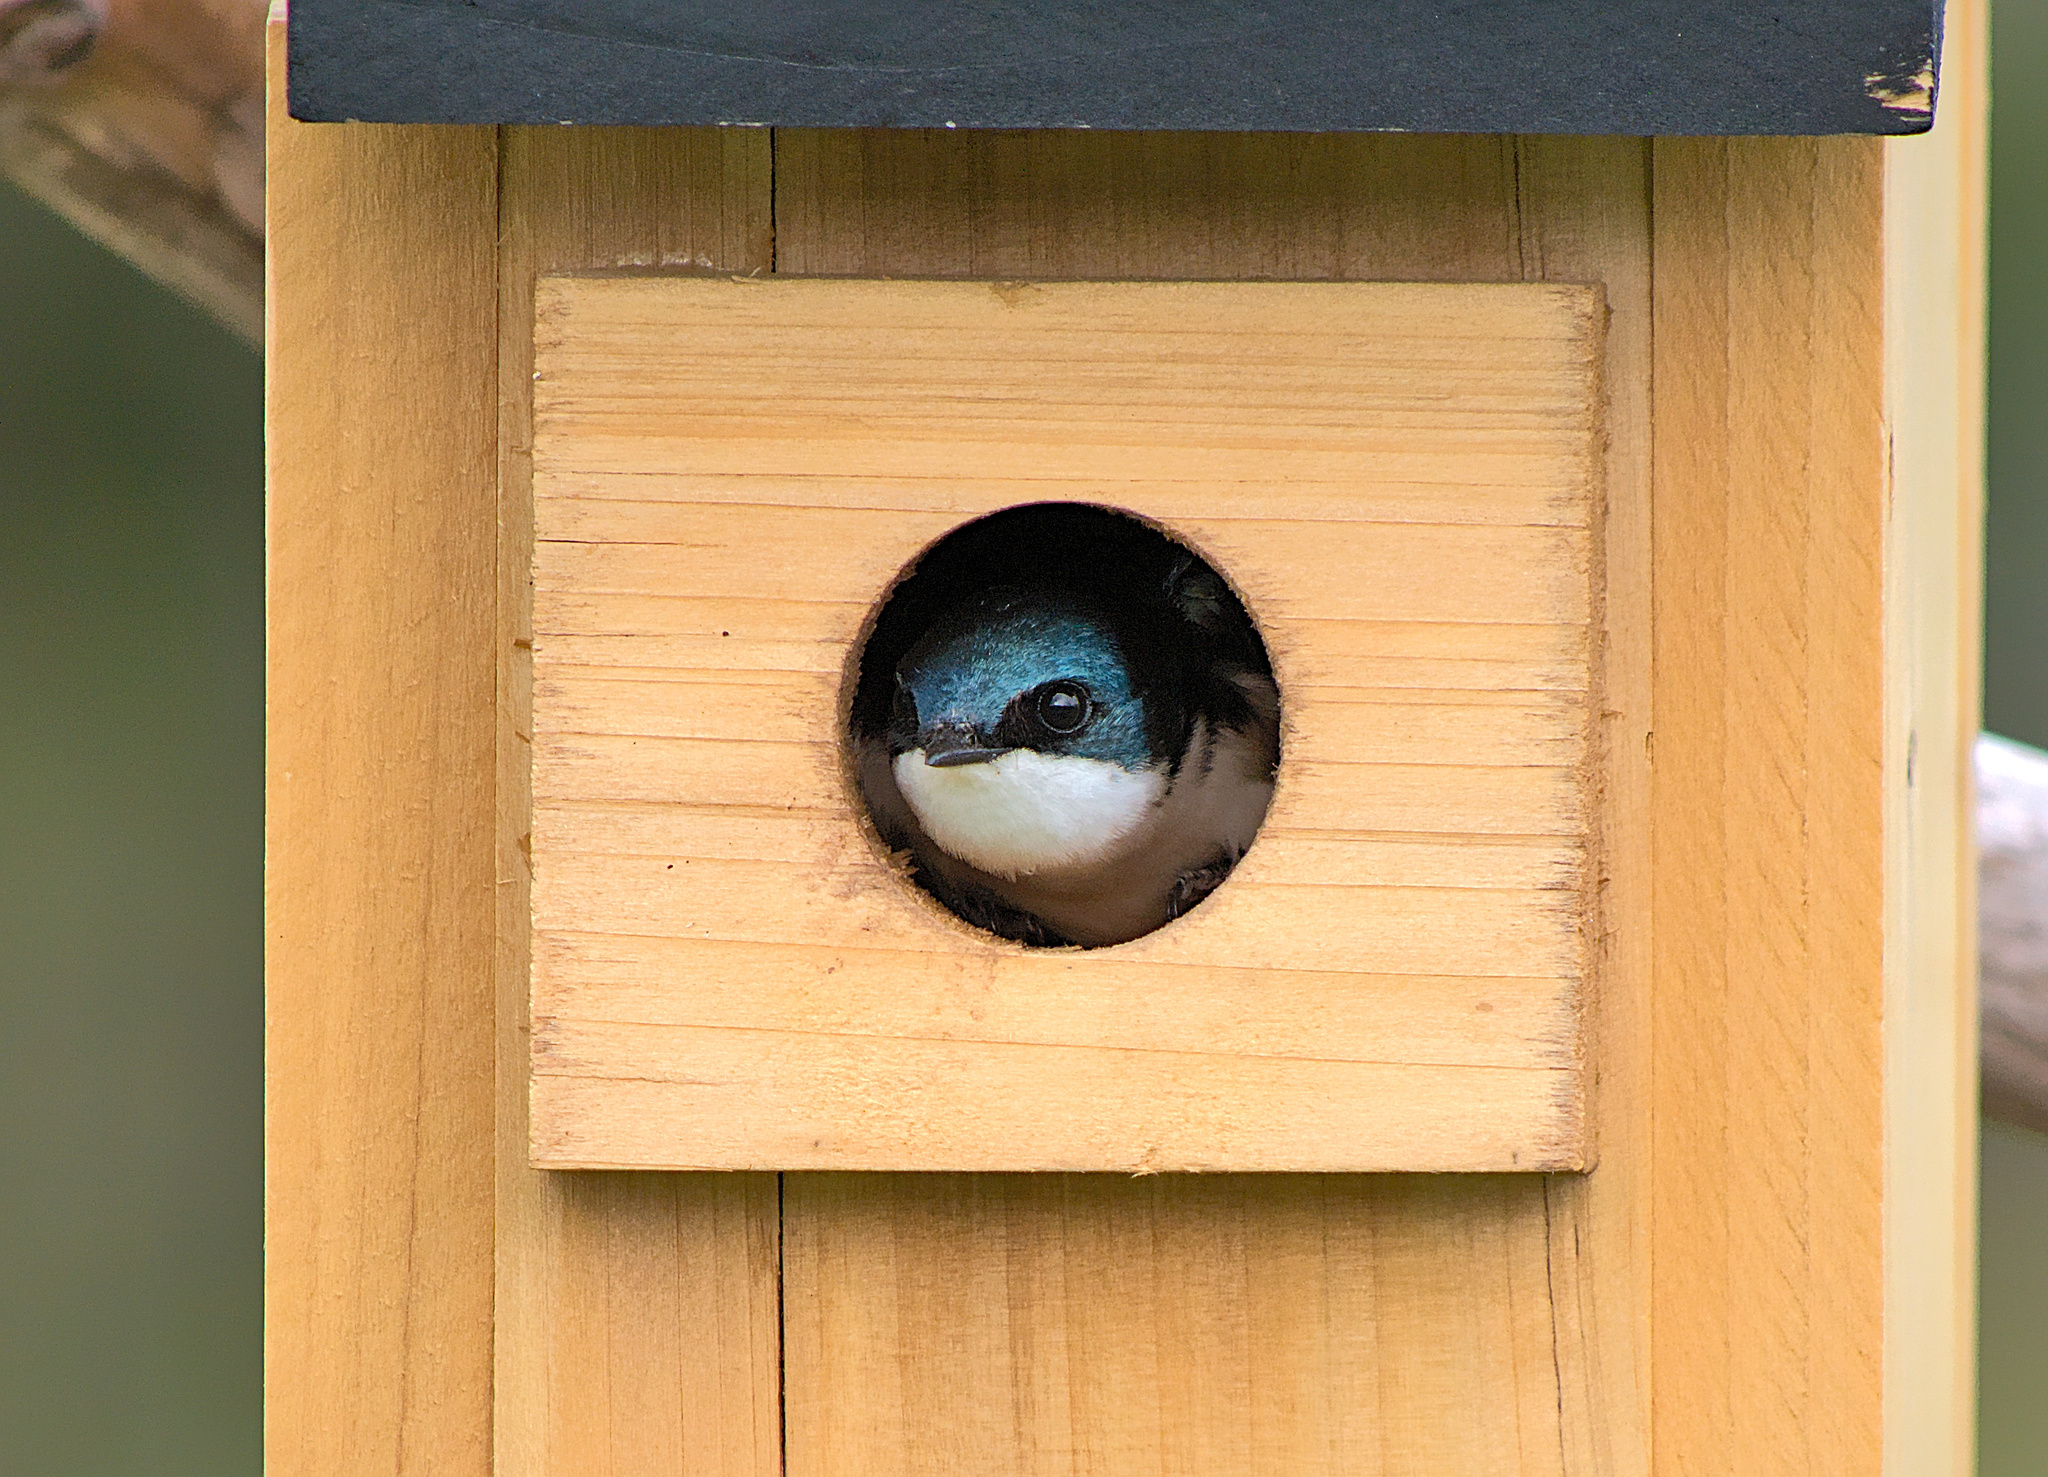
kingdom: Animalia
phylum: Chordata
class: Aves
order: Passeriformes
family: Hirundinidae
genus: Tachycineta
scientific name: Tachycineta bicolor
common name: Tree swallow
